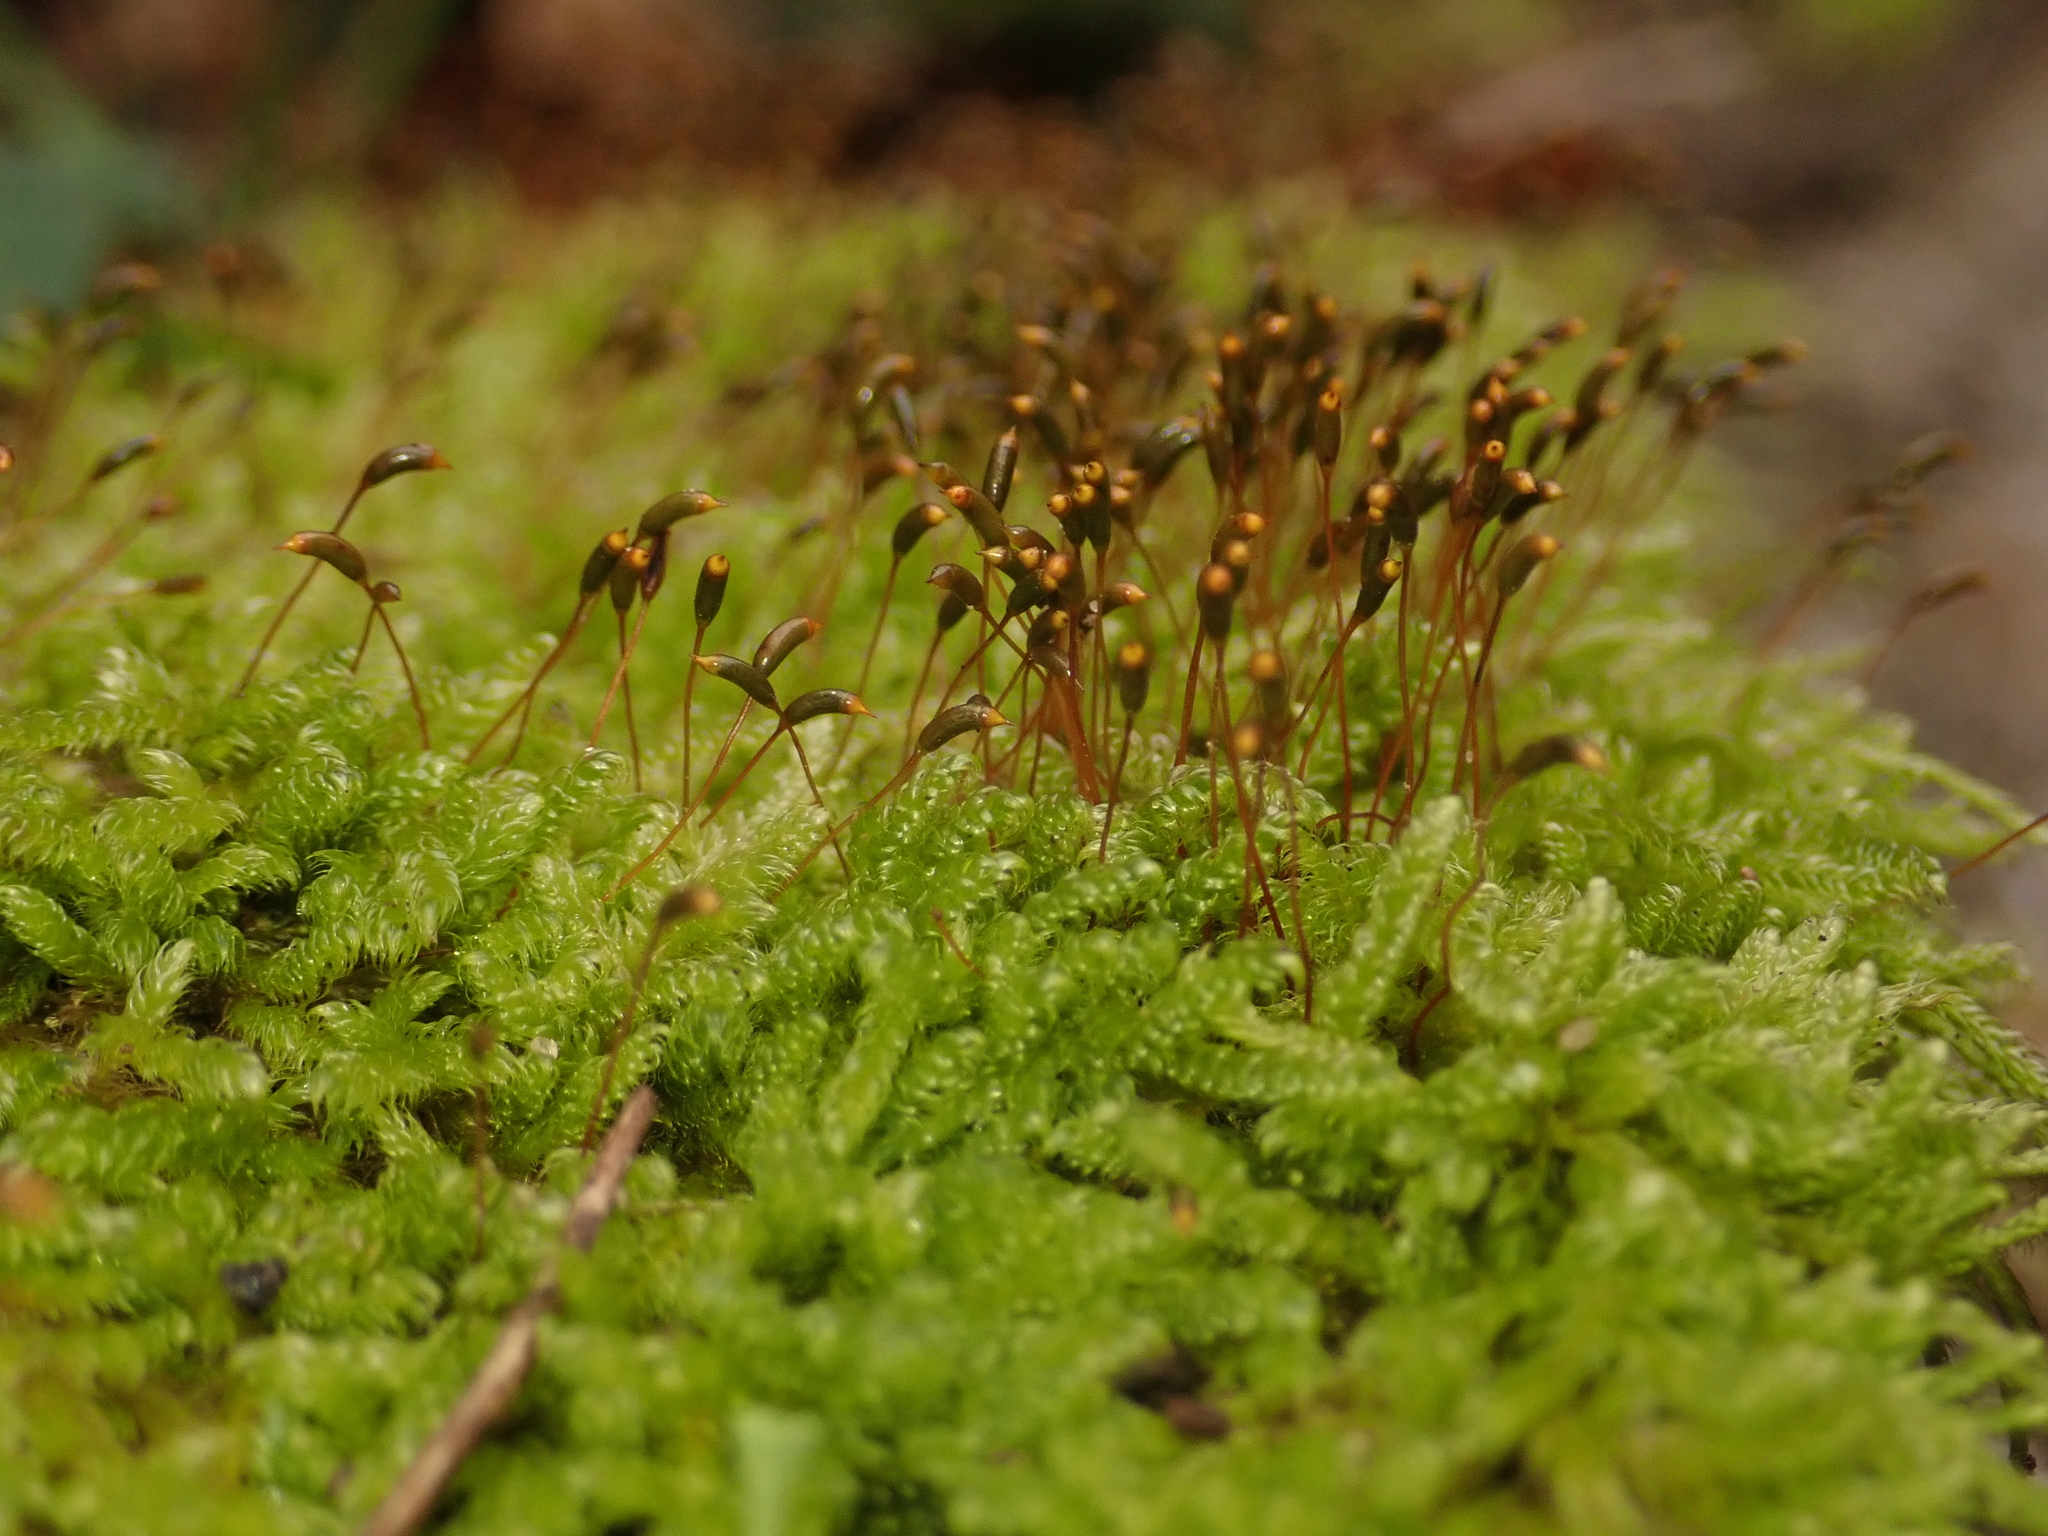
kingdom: Plantae
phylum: Bryophyta
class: Bryopsida
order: Hypnales
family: Hypnaceae
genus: Hypnum
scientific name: Hypnum cupressiforme
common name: Cypress-leaved plait-moss
